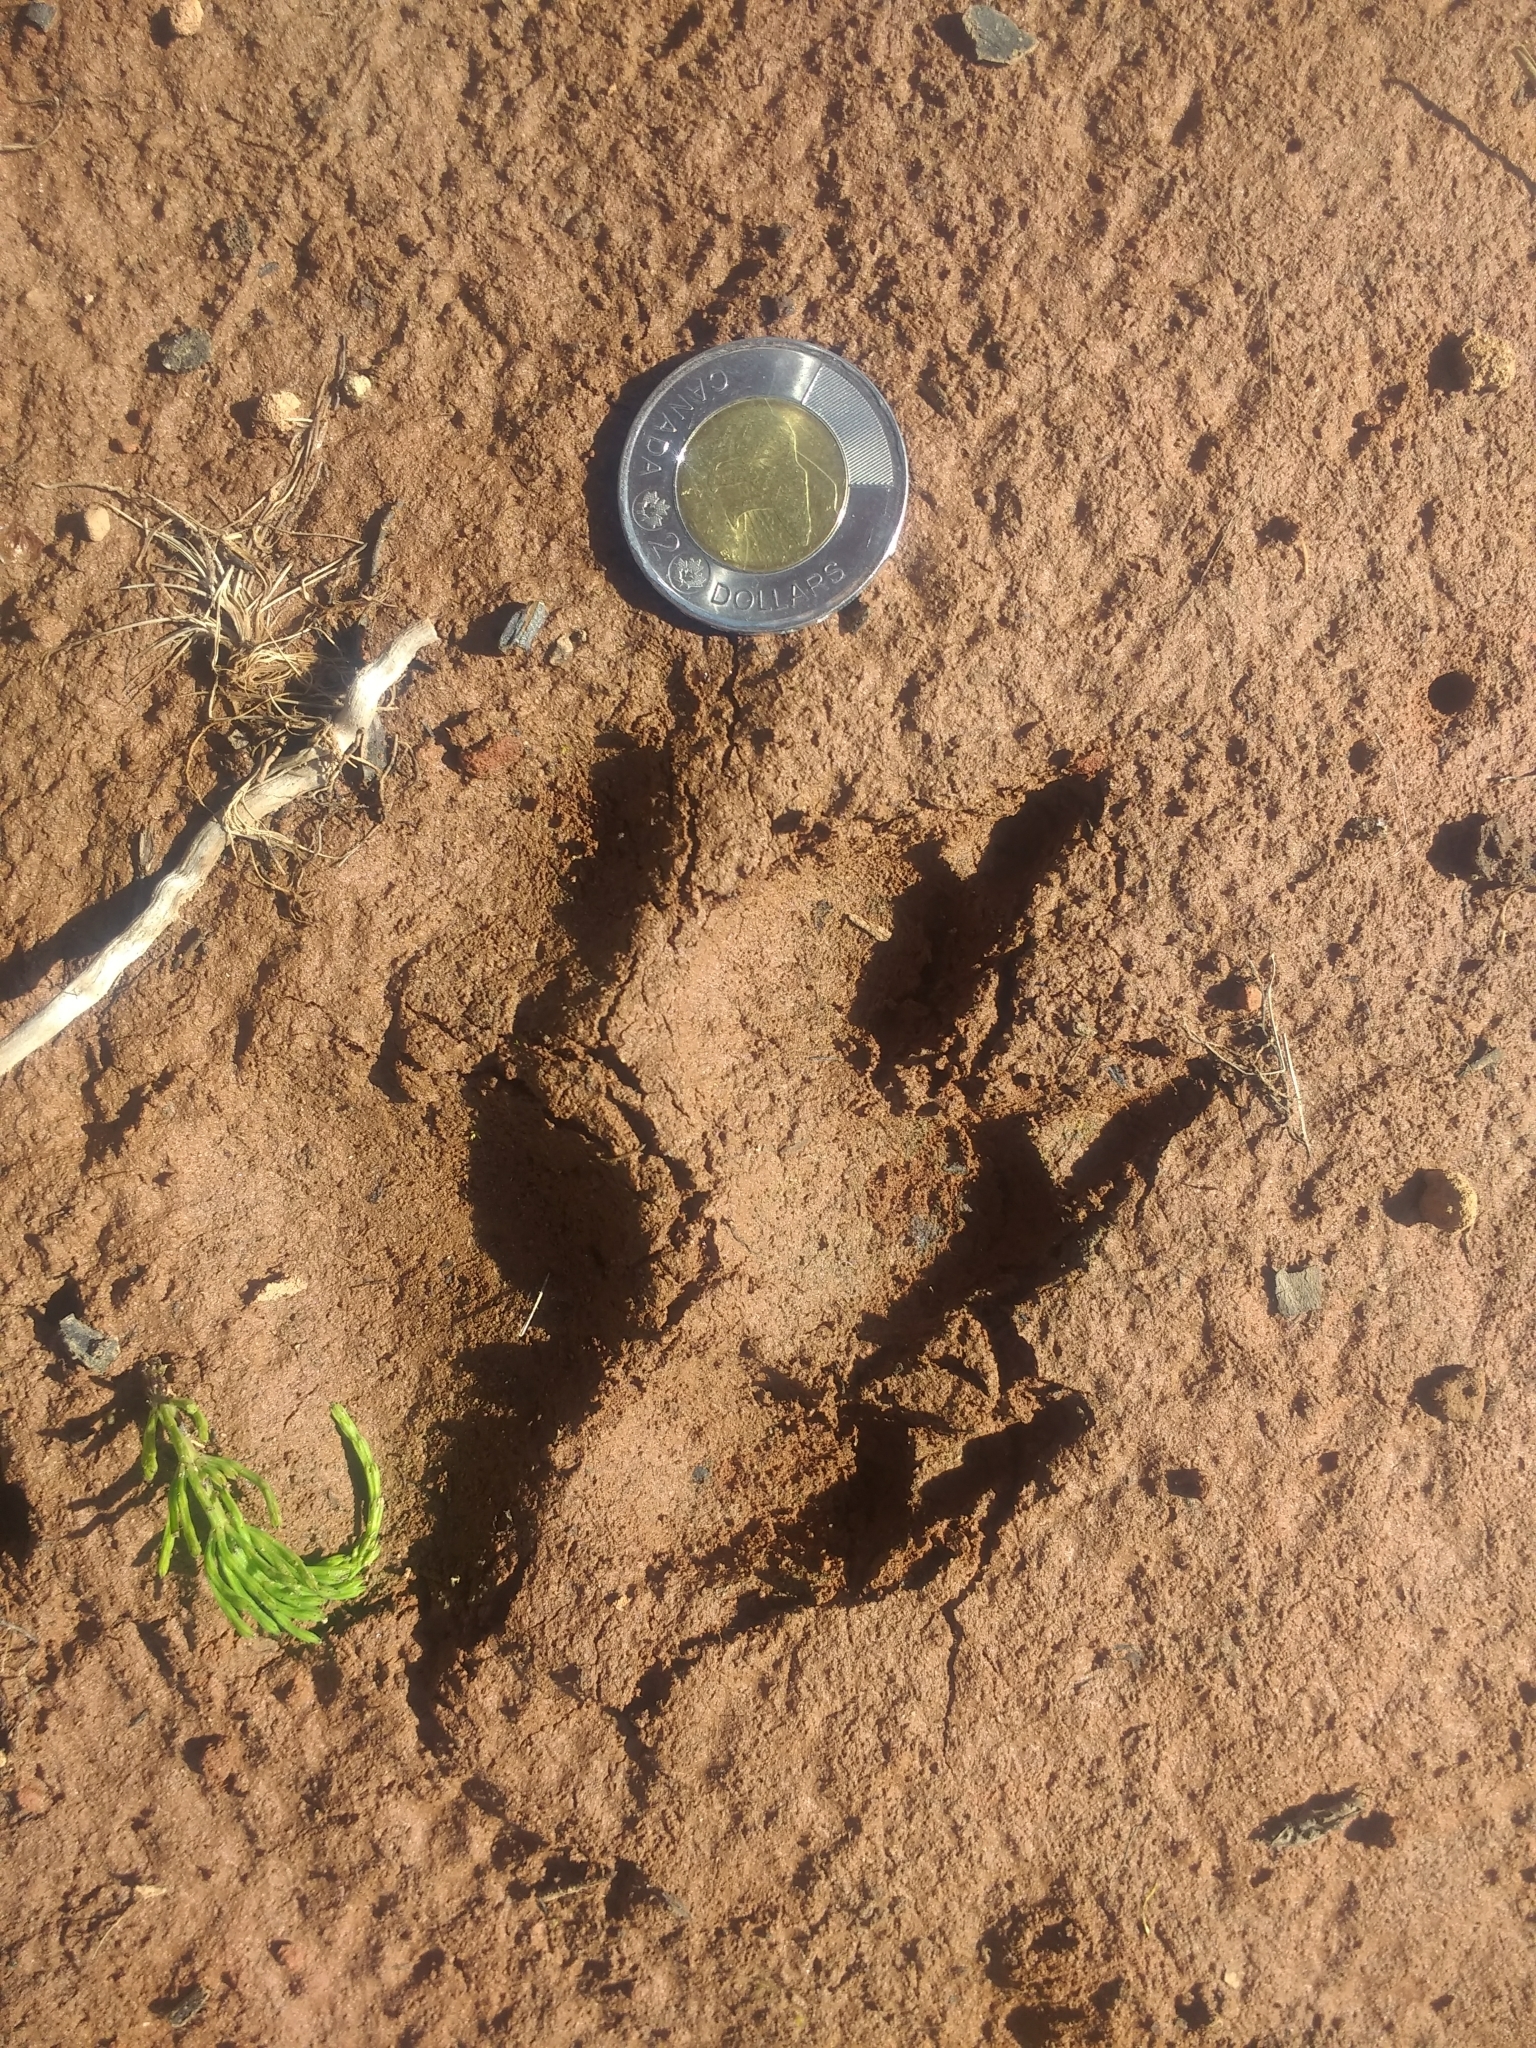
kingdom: Animalia
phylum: Chordata
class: Mammalia
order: Carnivora
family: Canidae
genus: Canis
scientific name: Canis lupus
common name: Gray wolf
